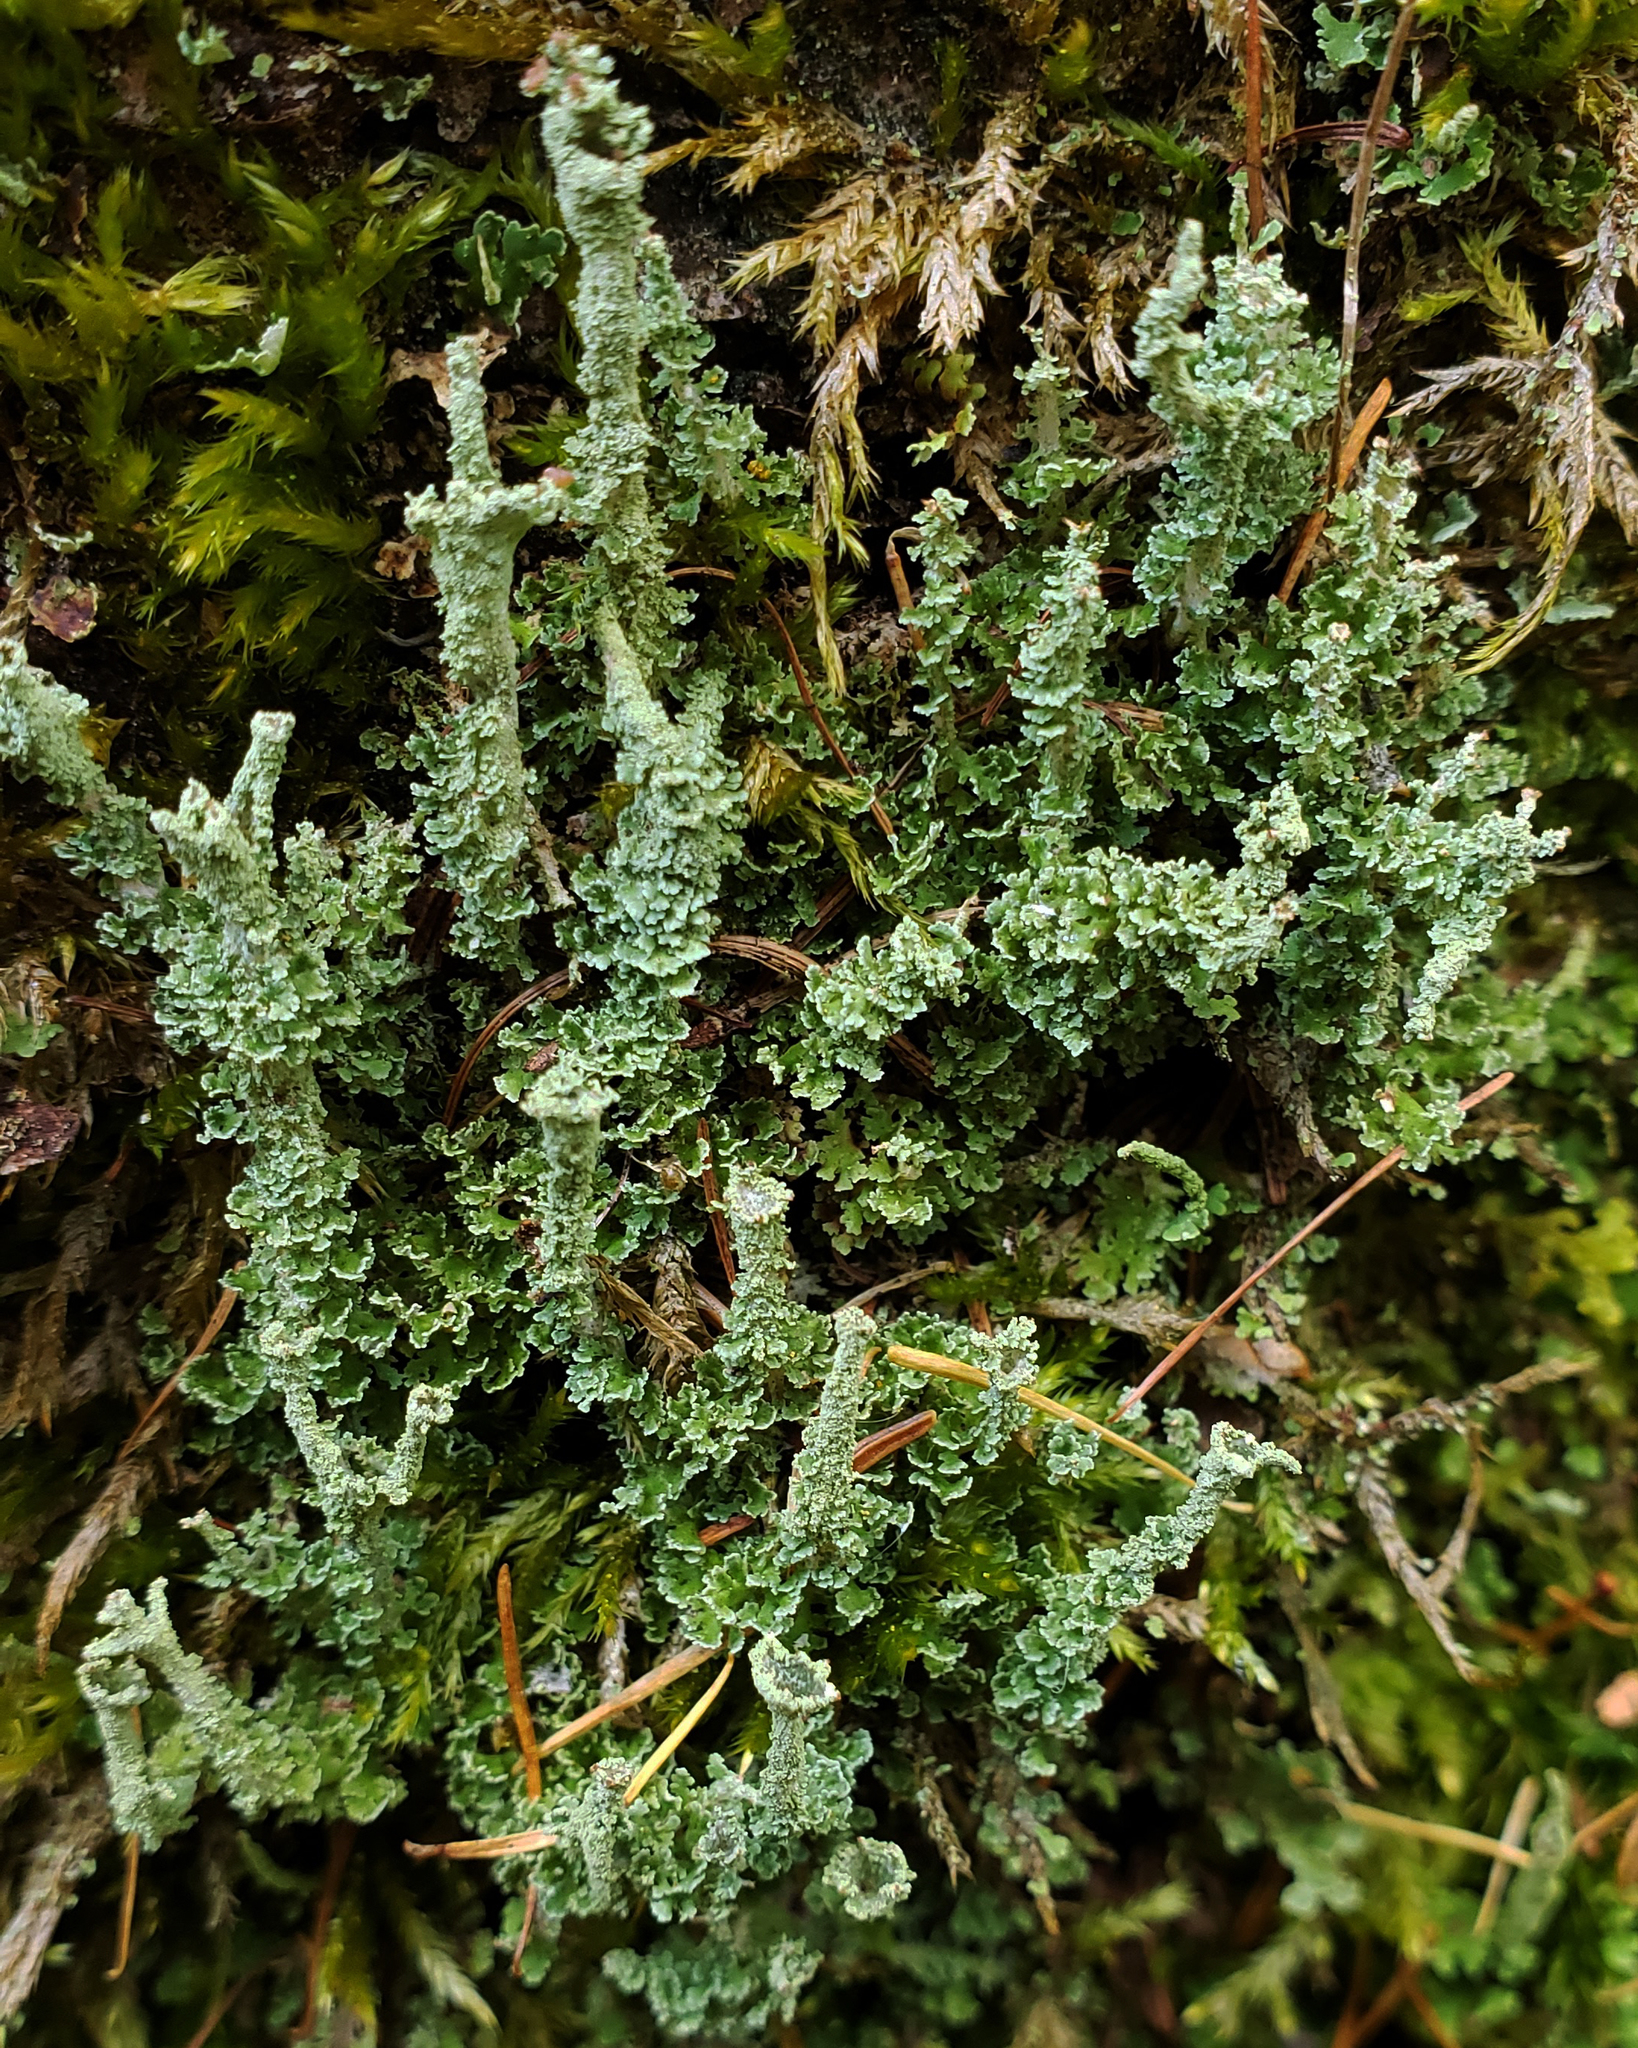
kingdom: Fungi
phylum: Ascomycota
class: Lecanoromycetes
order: Lecanorales
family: Cladoniaceae
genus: Cladonia
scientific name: Cladonia squamosa
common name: Dragon horn
